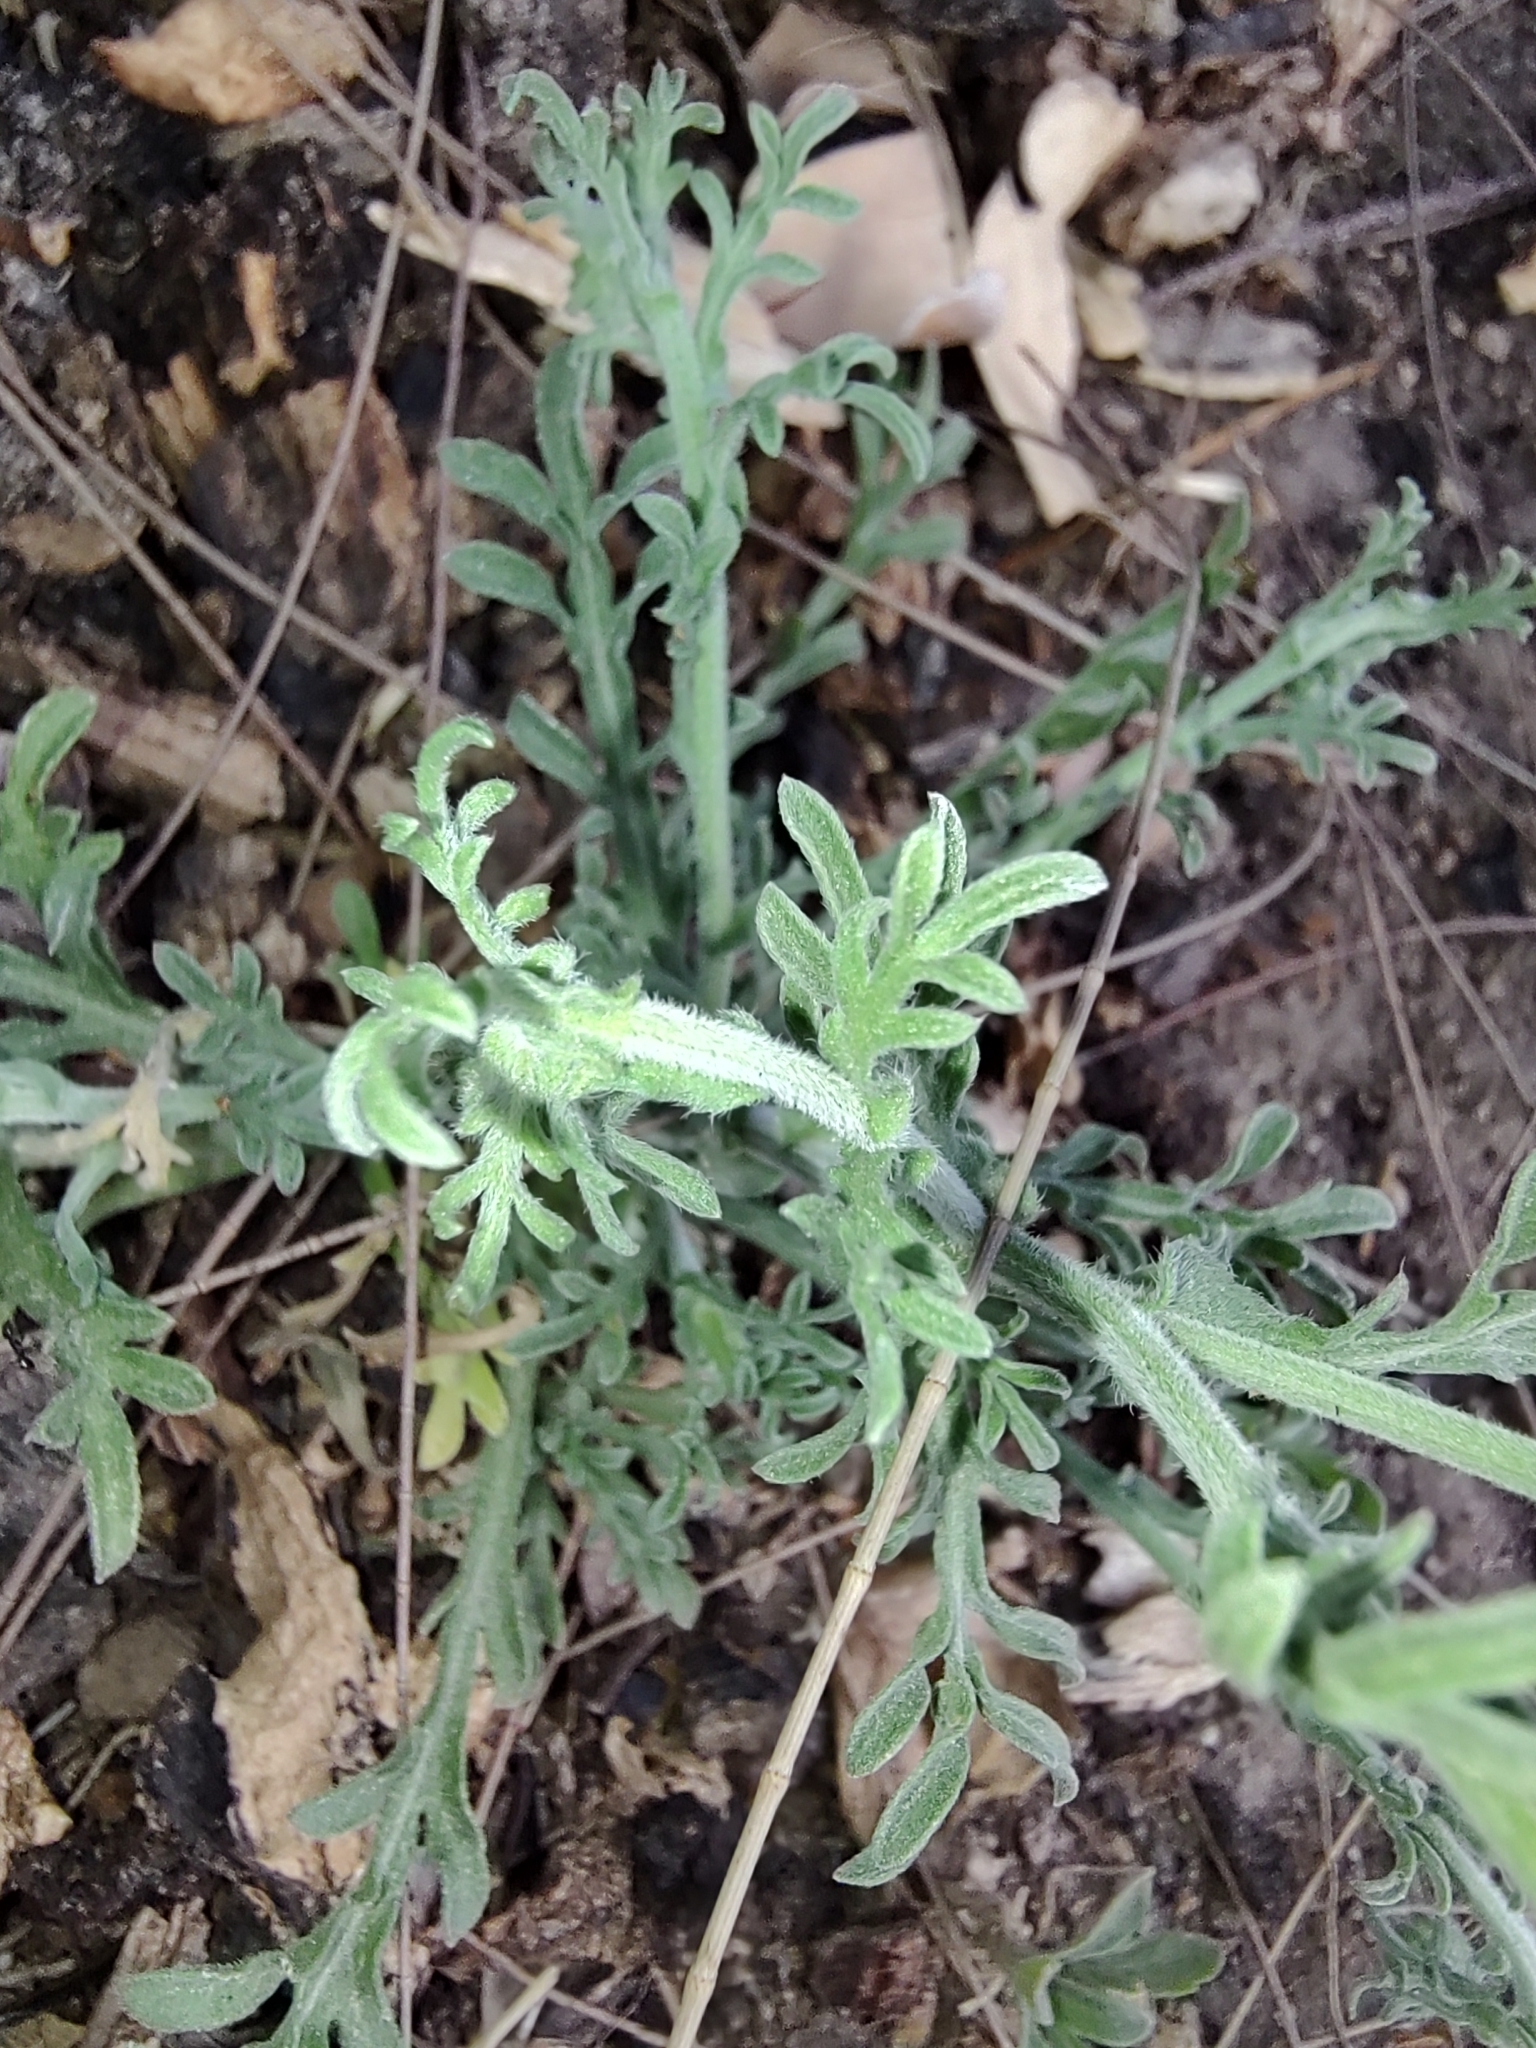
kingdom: Plantae
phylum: Tracheophyta
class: Magnoliopsida
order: Asterales
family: Asteraceae
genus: Aphanostephus
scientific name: Aphanostephus ramosissimus
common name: Plains lazy daisy
